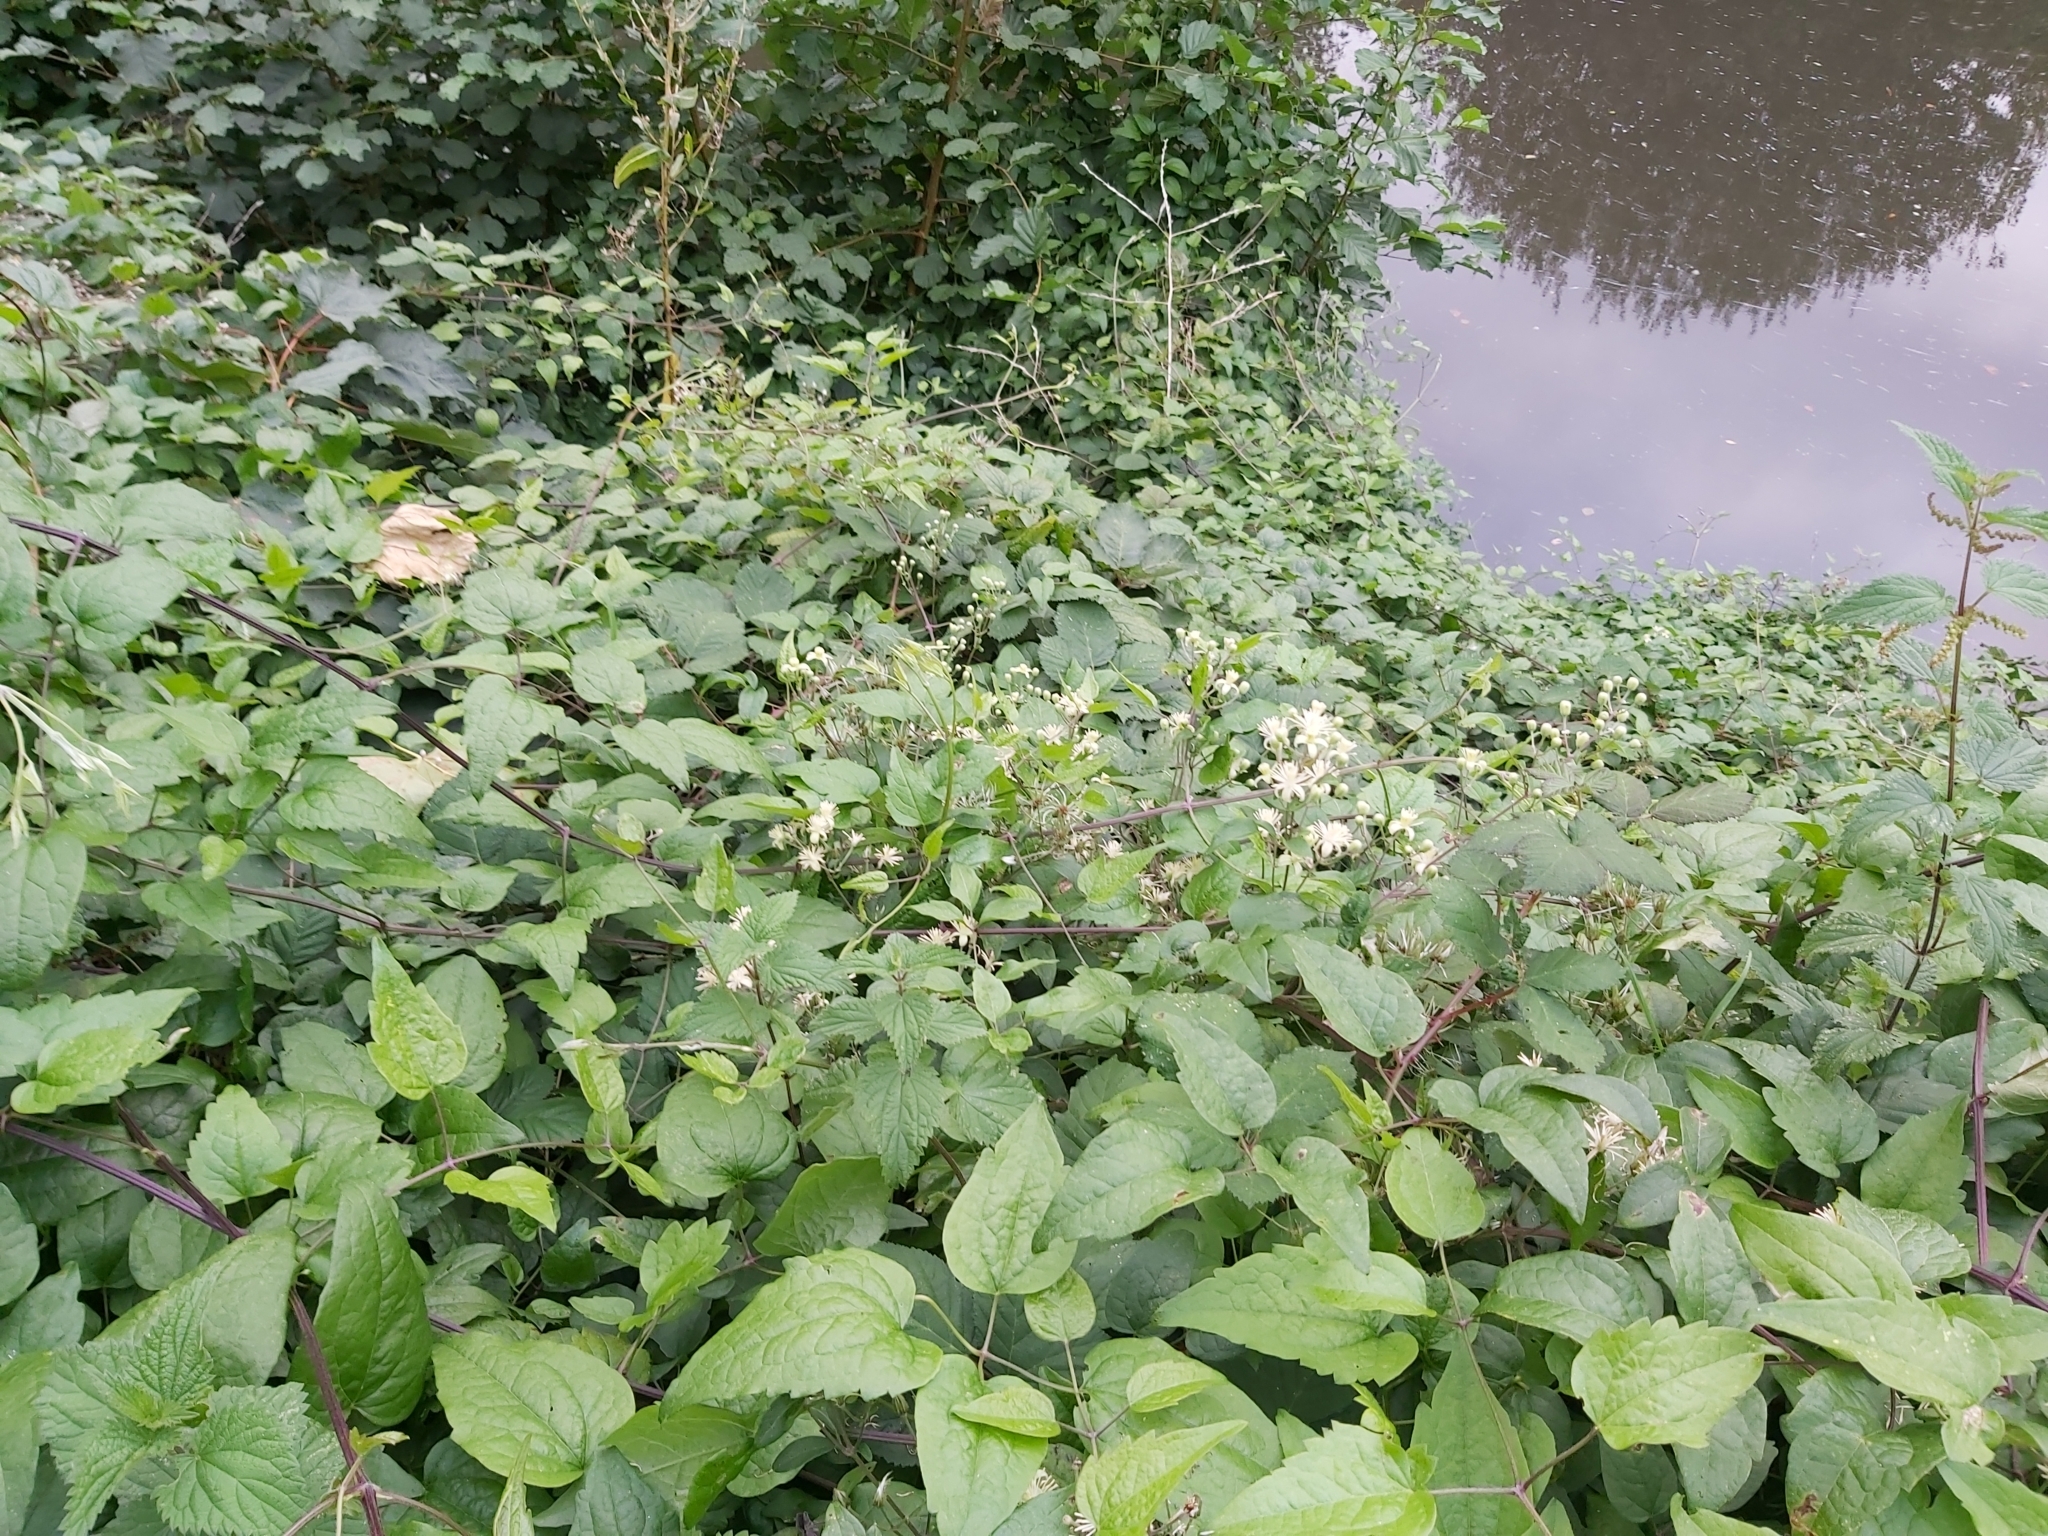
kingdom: Plantae
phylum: Tracheophyta
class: Magnoliopsida
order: Ranunculales
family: Ranunculaceae
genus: Clematis
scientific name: Clematis vitalba
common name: Evergreen clematis
